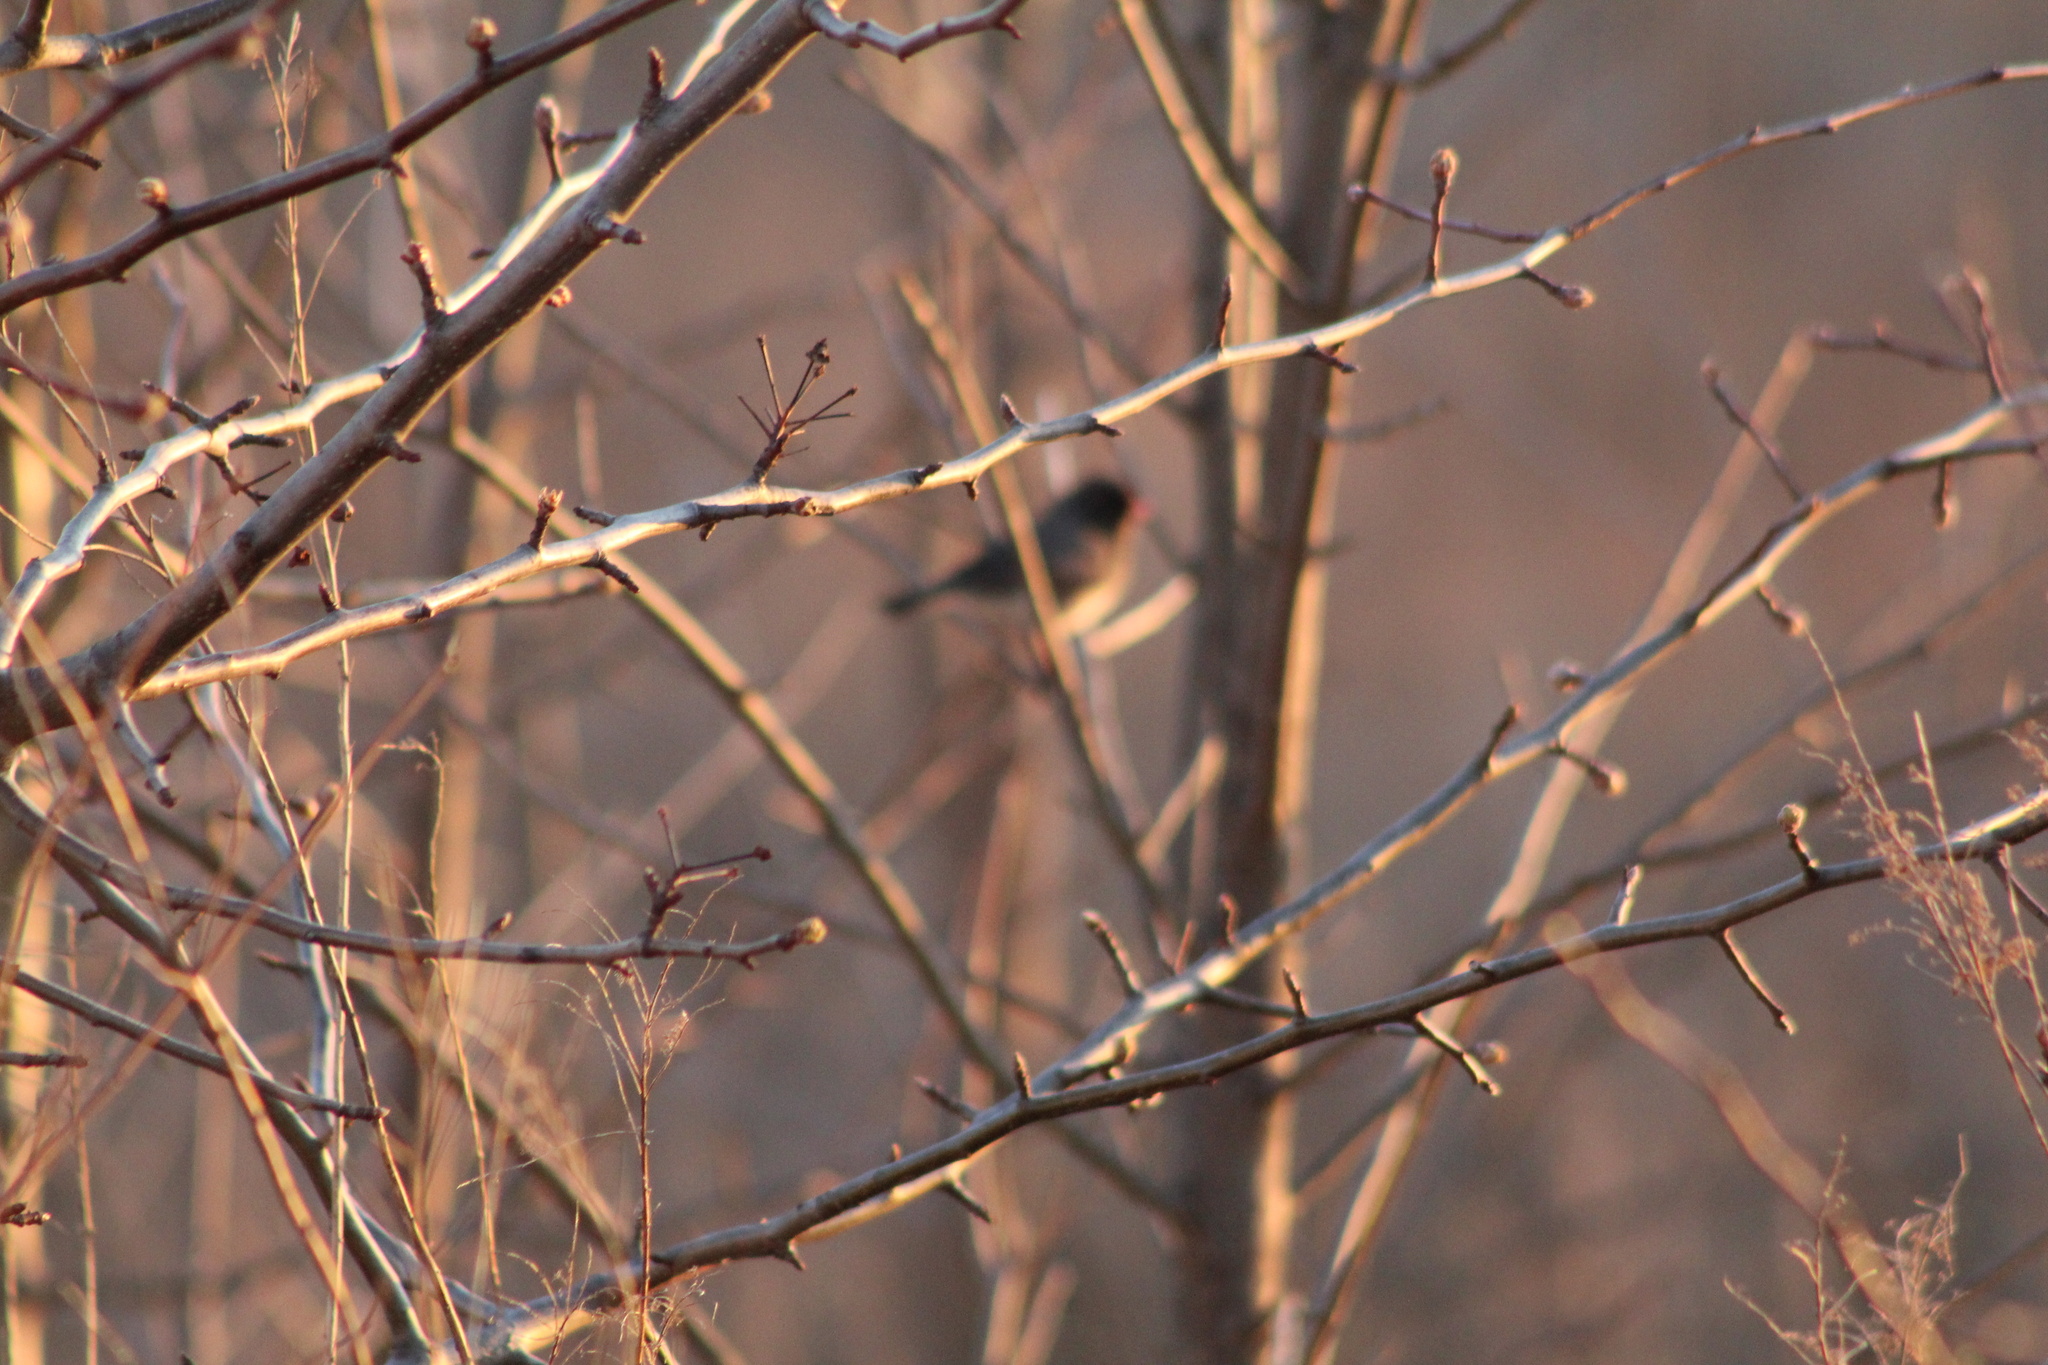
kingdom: Animalia
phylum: Chordata
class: Aves
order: Passeriformes
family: Passerellidae
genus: Junco
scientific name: Junco hyemalis
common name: Dark-eyed junco
